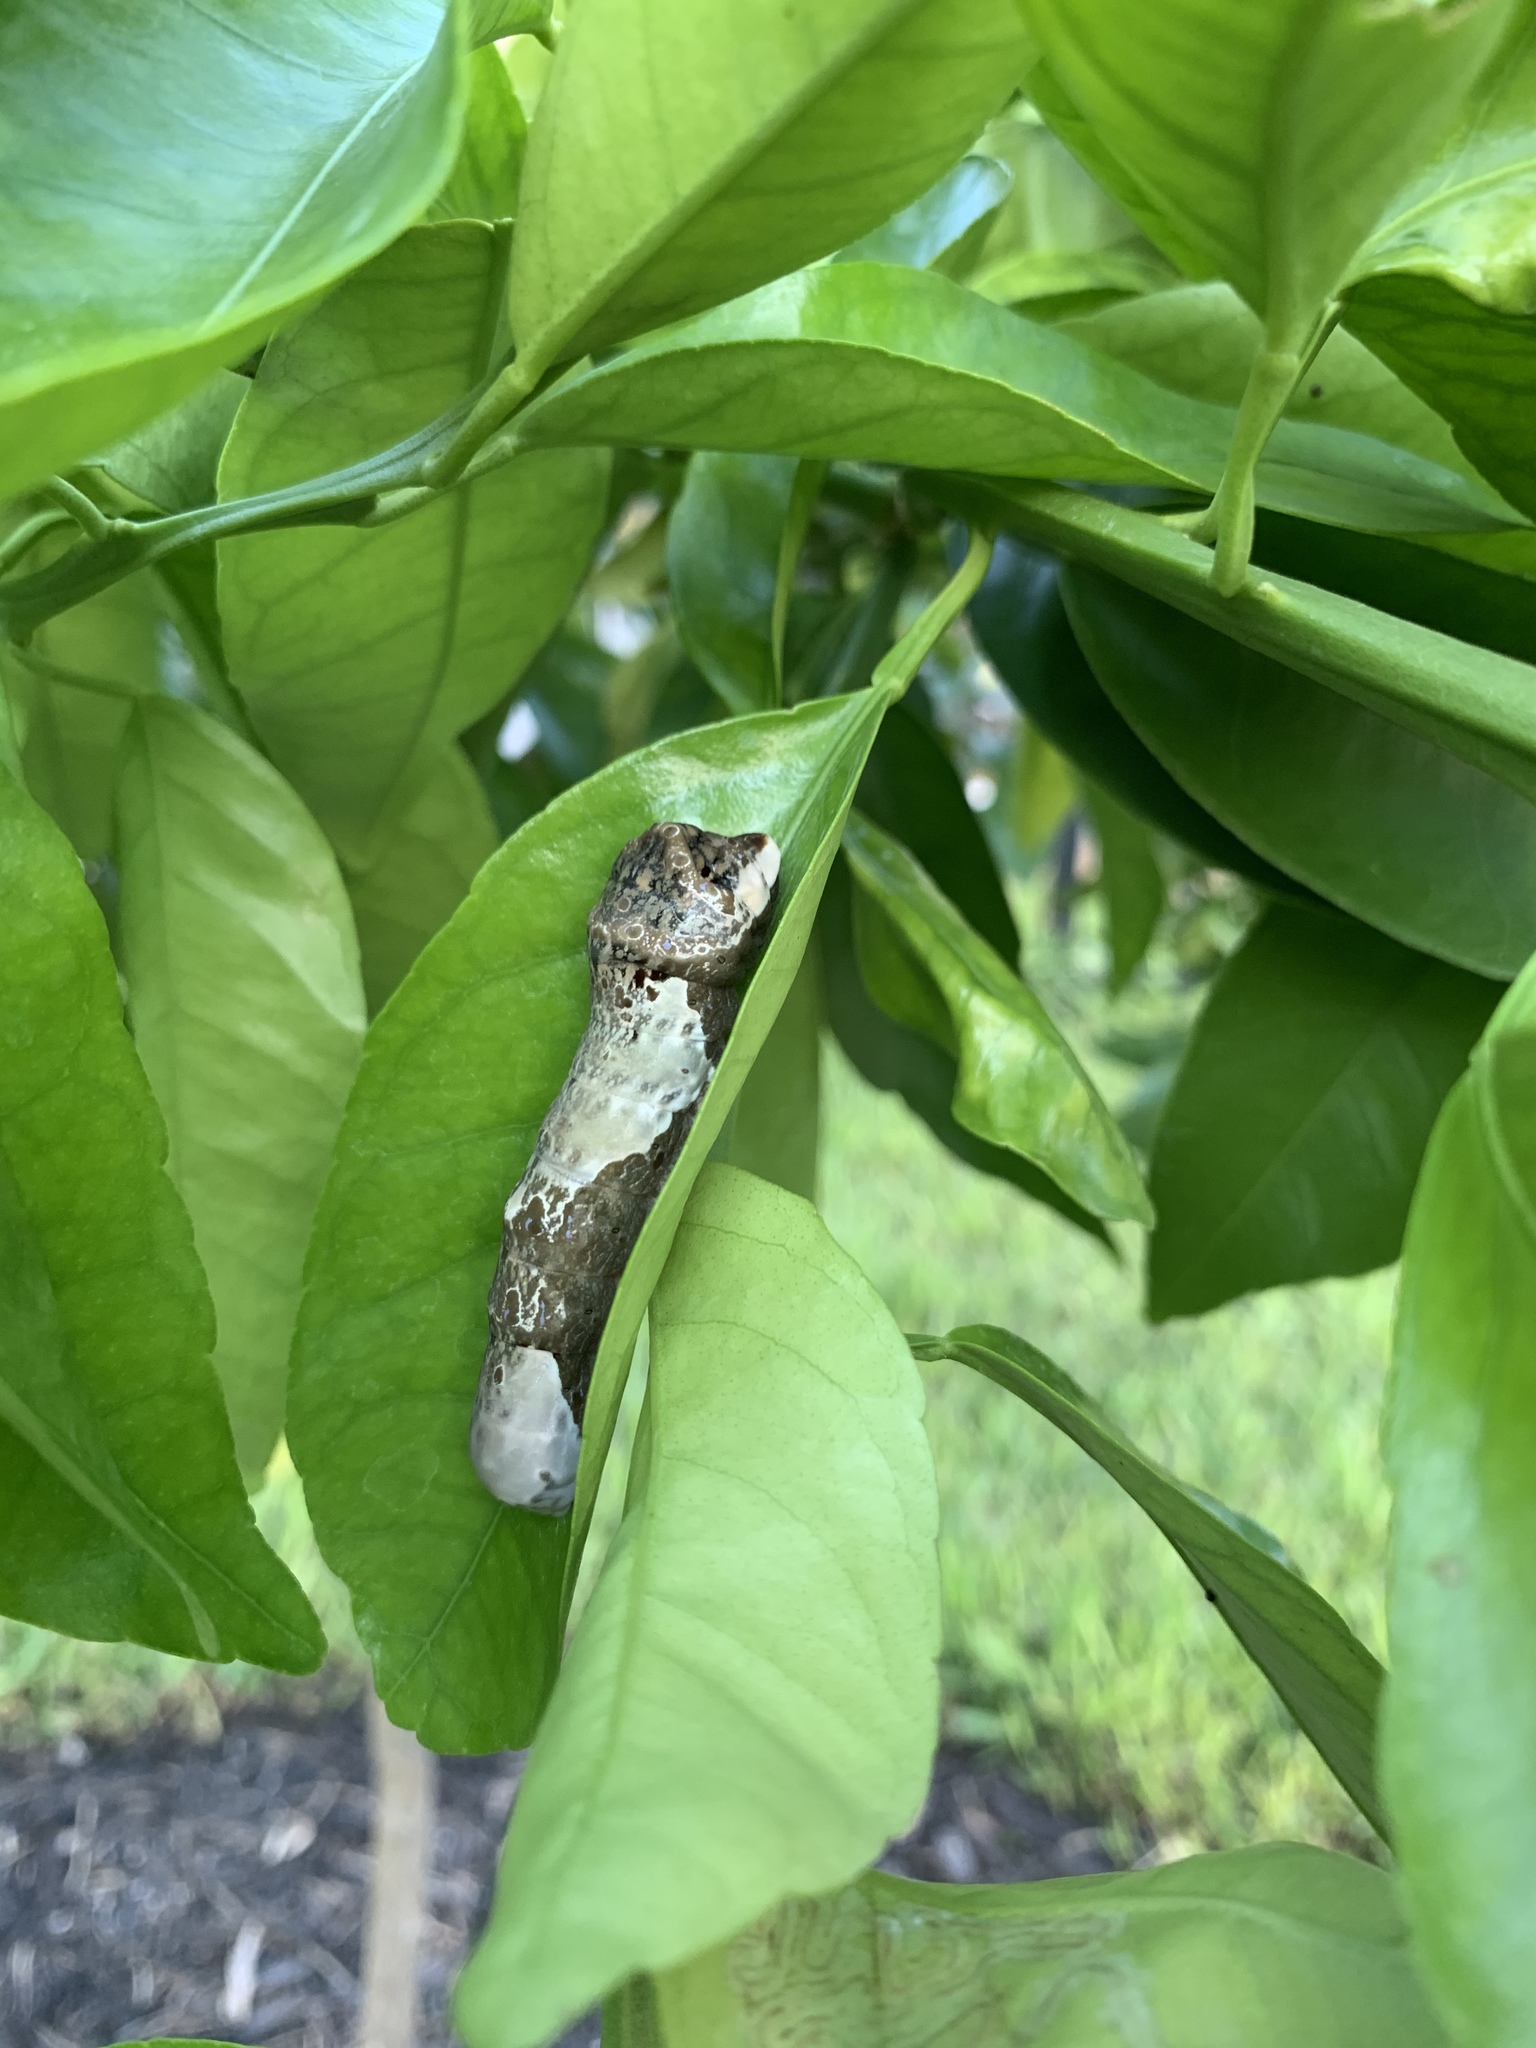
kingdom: Animalia
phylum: Arthropoda
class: Insecta
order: Lepidoptera
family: Papilionidae
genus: Papilio
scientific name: Papilio cresphontes
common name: Giant swallowtail
